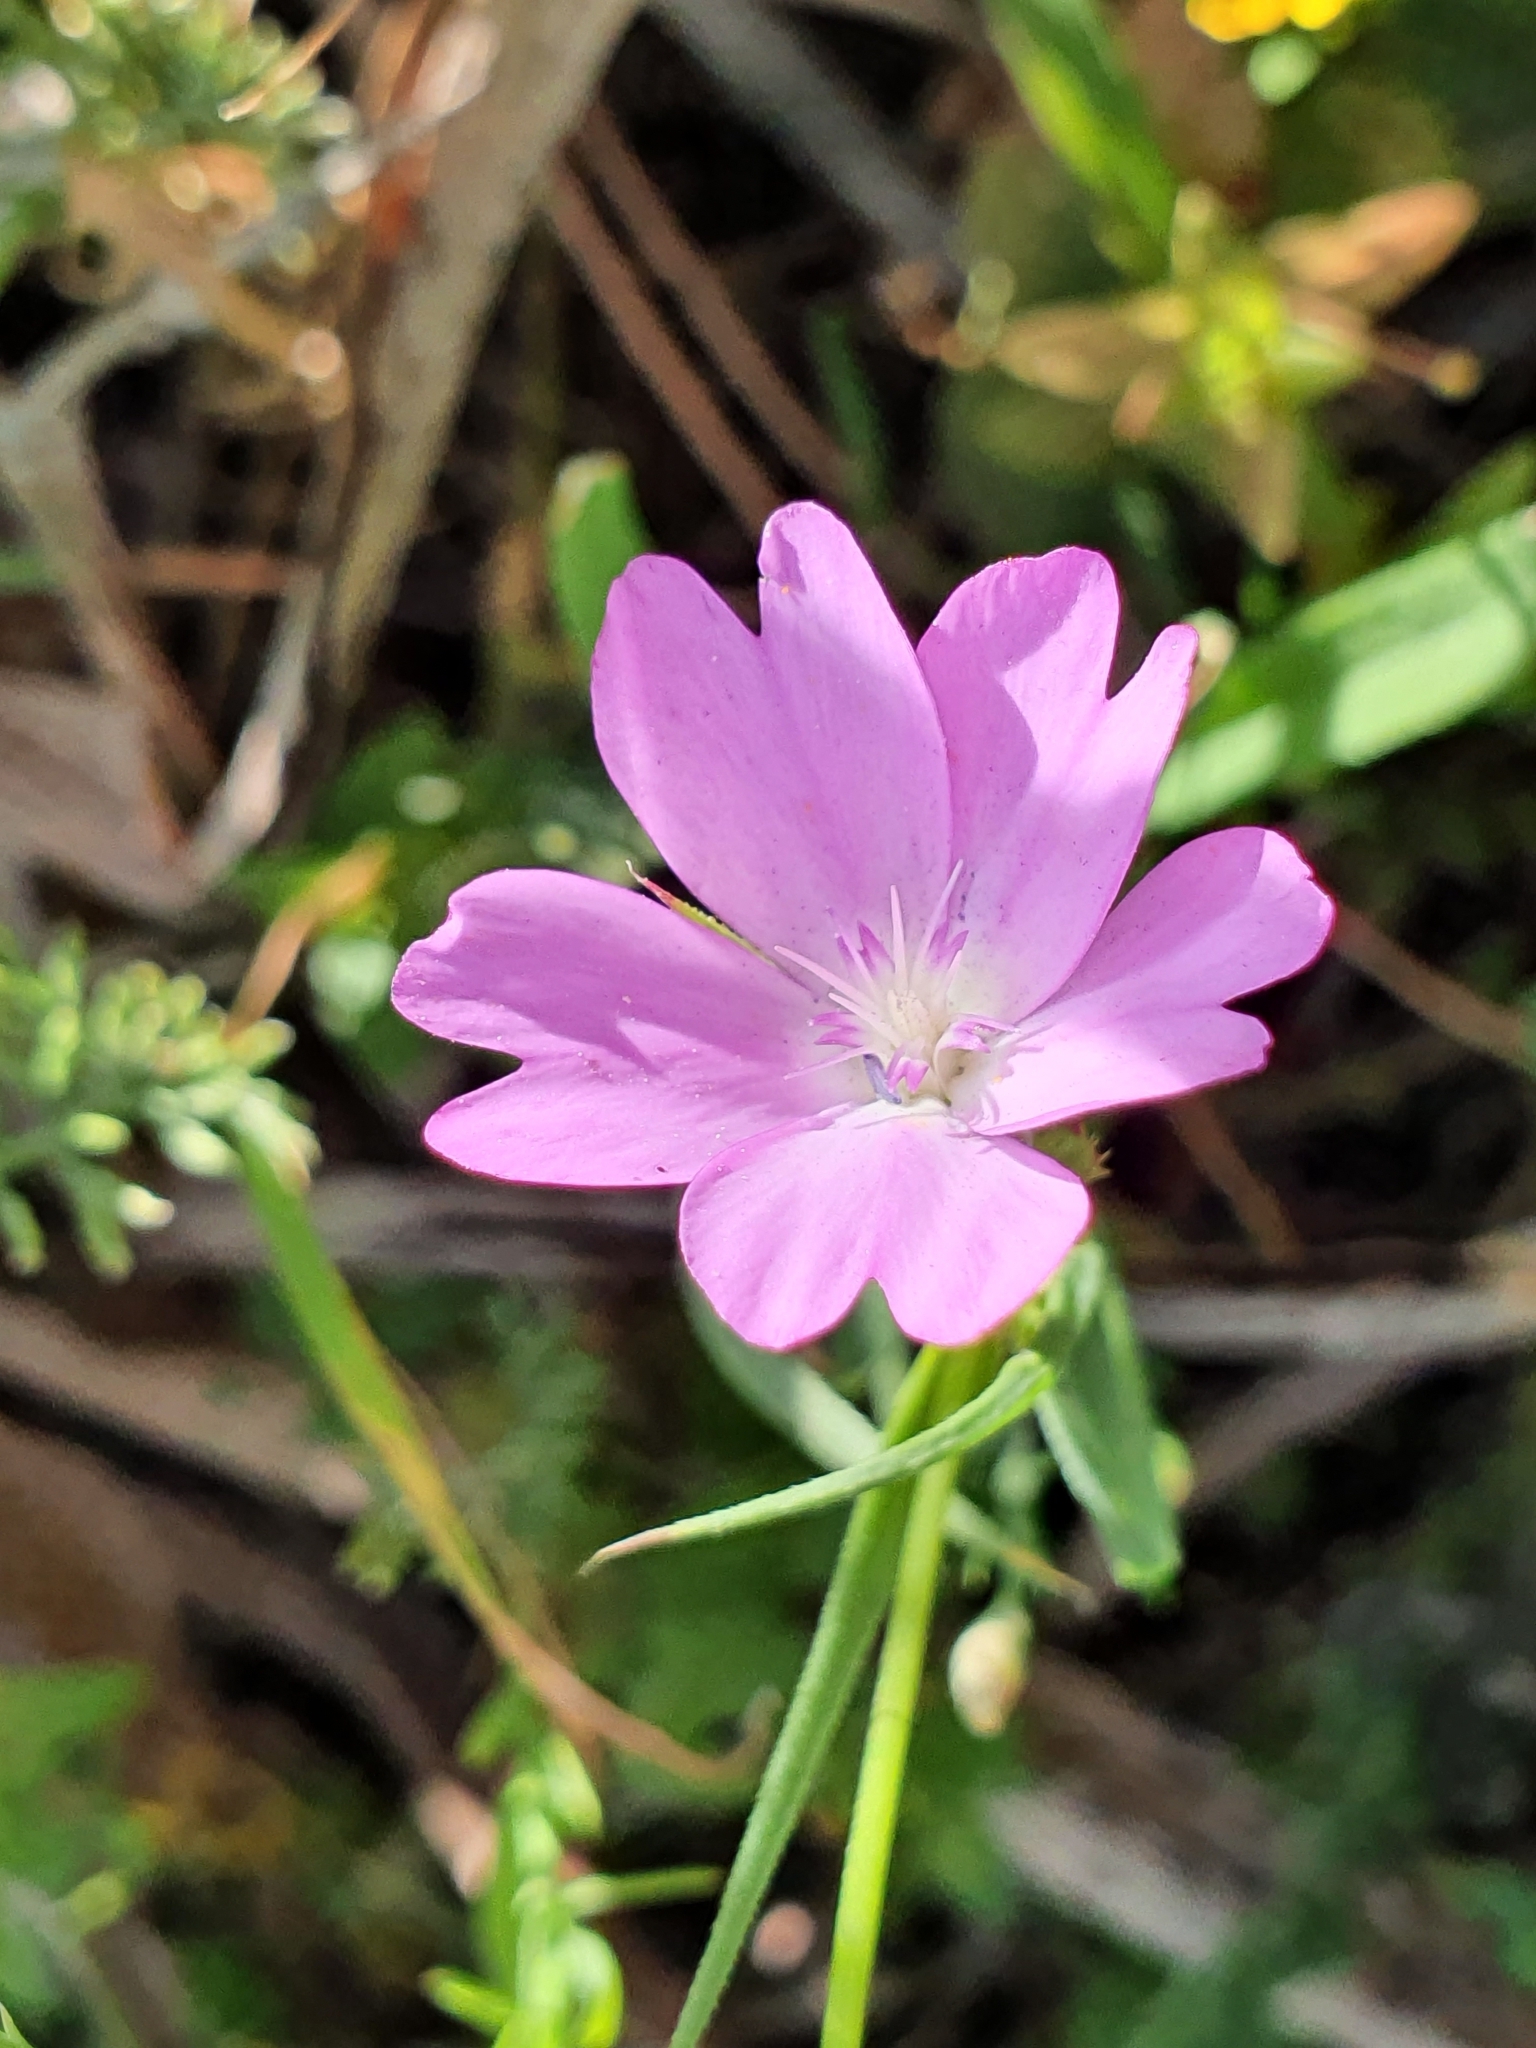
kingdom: Plantae
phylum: Tracheophyta
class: Magnoliopsida
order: Caryophyllales
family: Caryophyllaceae
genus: Eudianthe
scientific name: Eudianthe coeli-rosa
